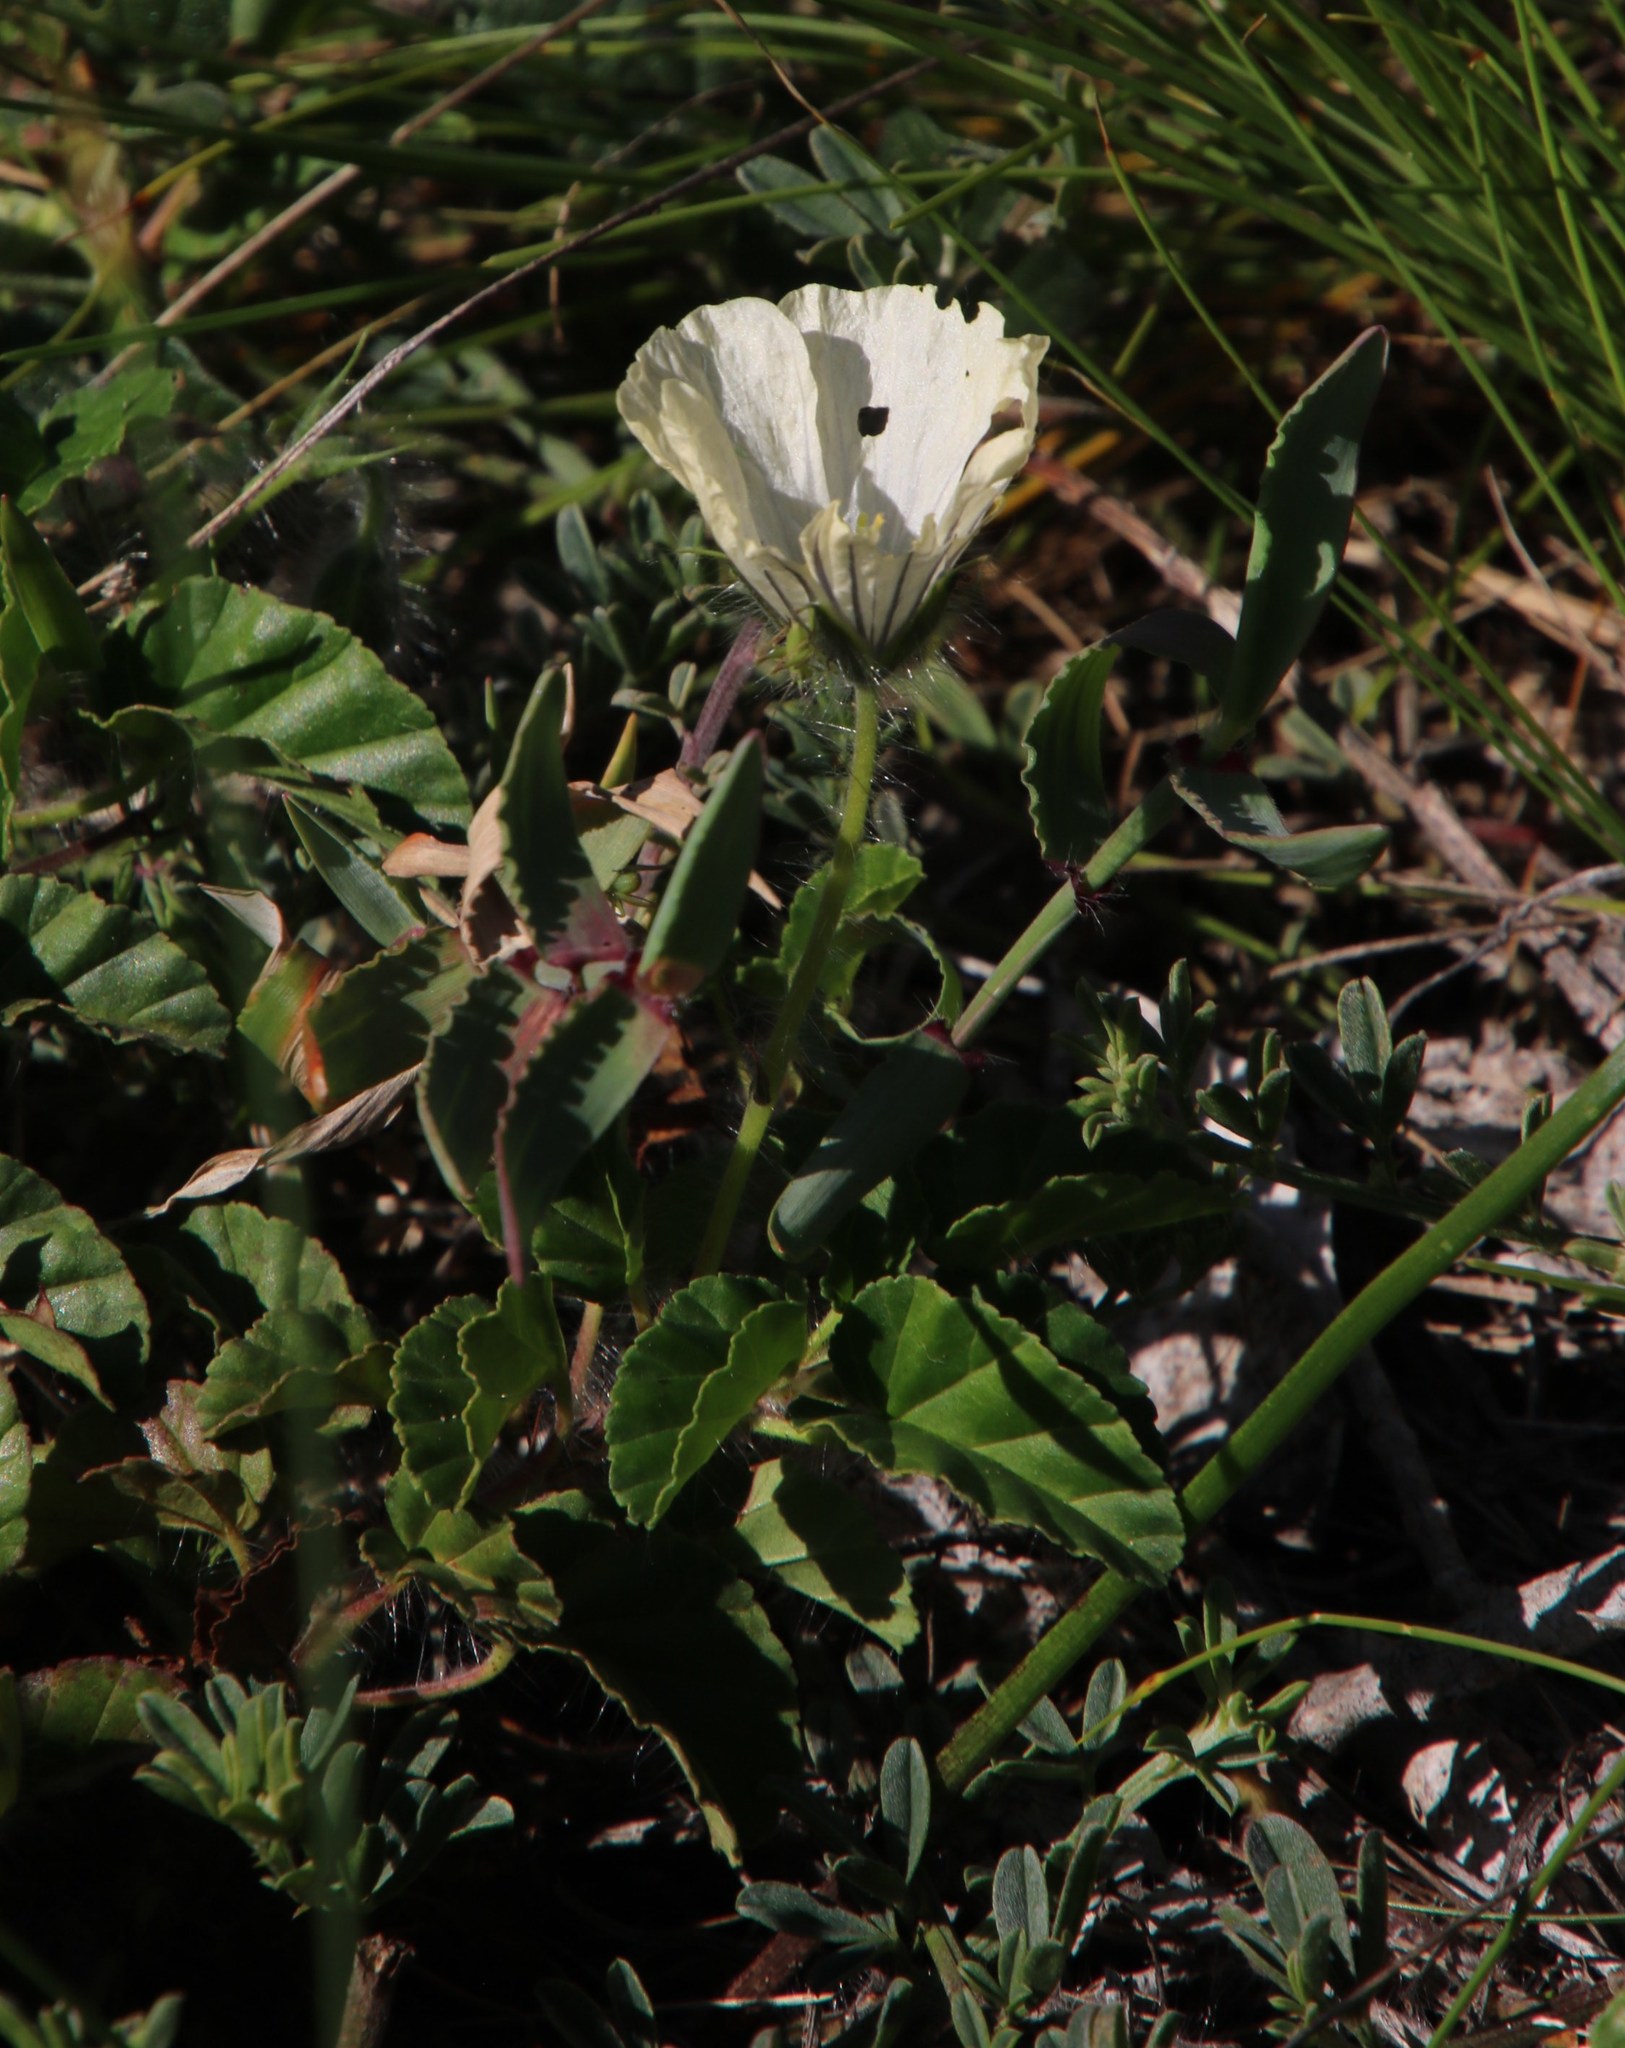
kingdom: Plantae
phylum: Tracheophyta
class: Magnoliopsida
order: Geraniales
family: Geraniaceae
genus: Monsonia
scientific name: Monsonia emarginata
